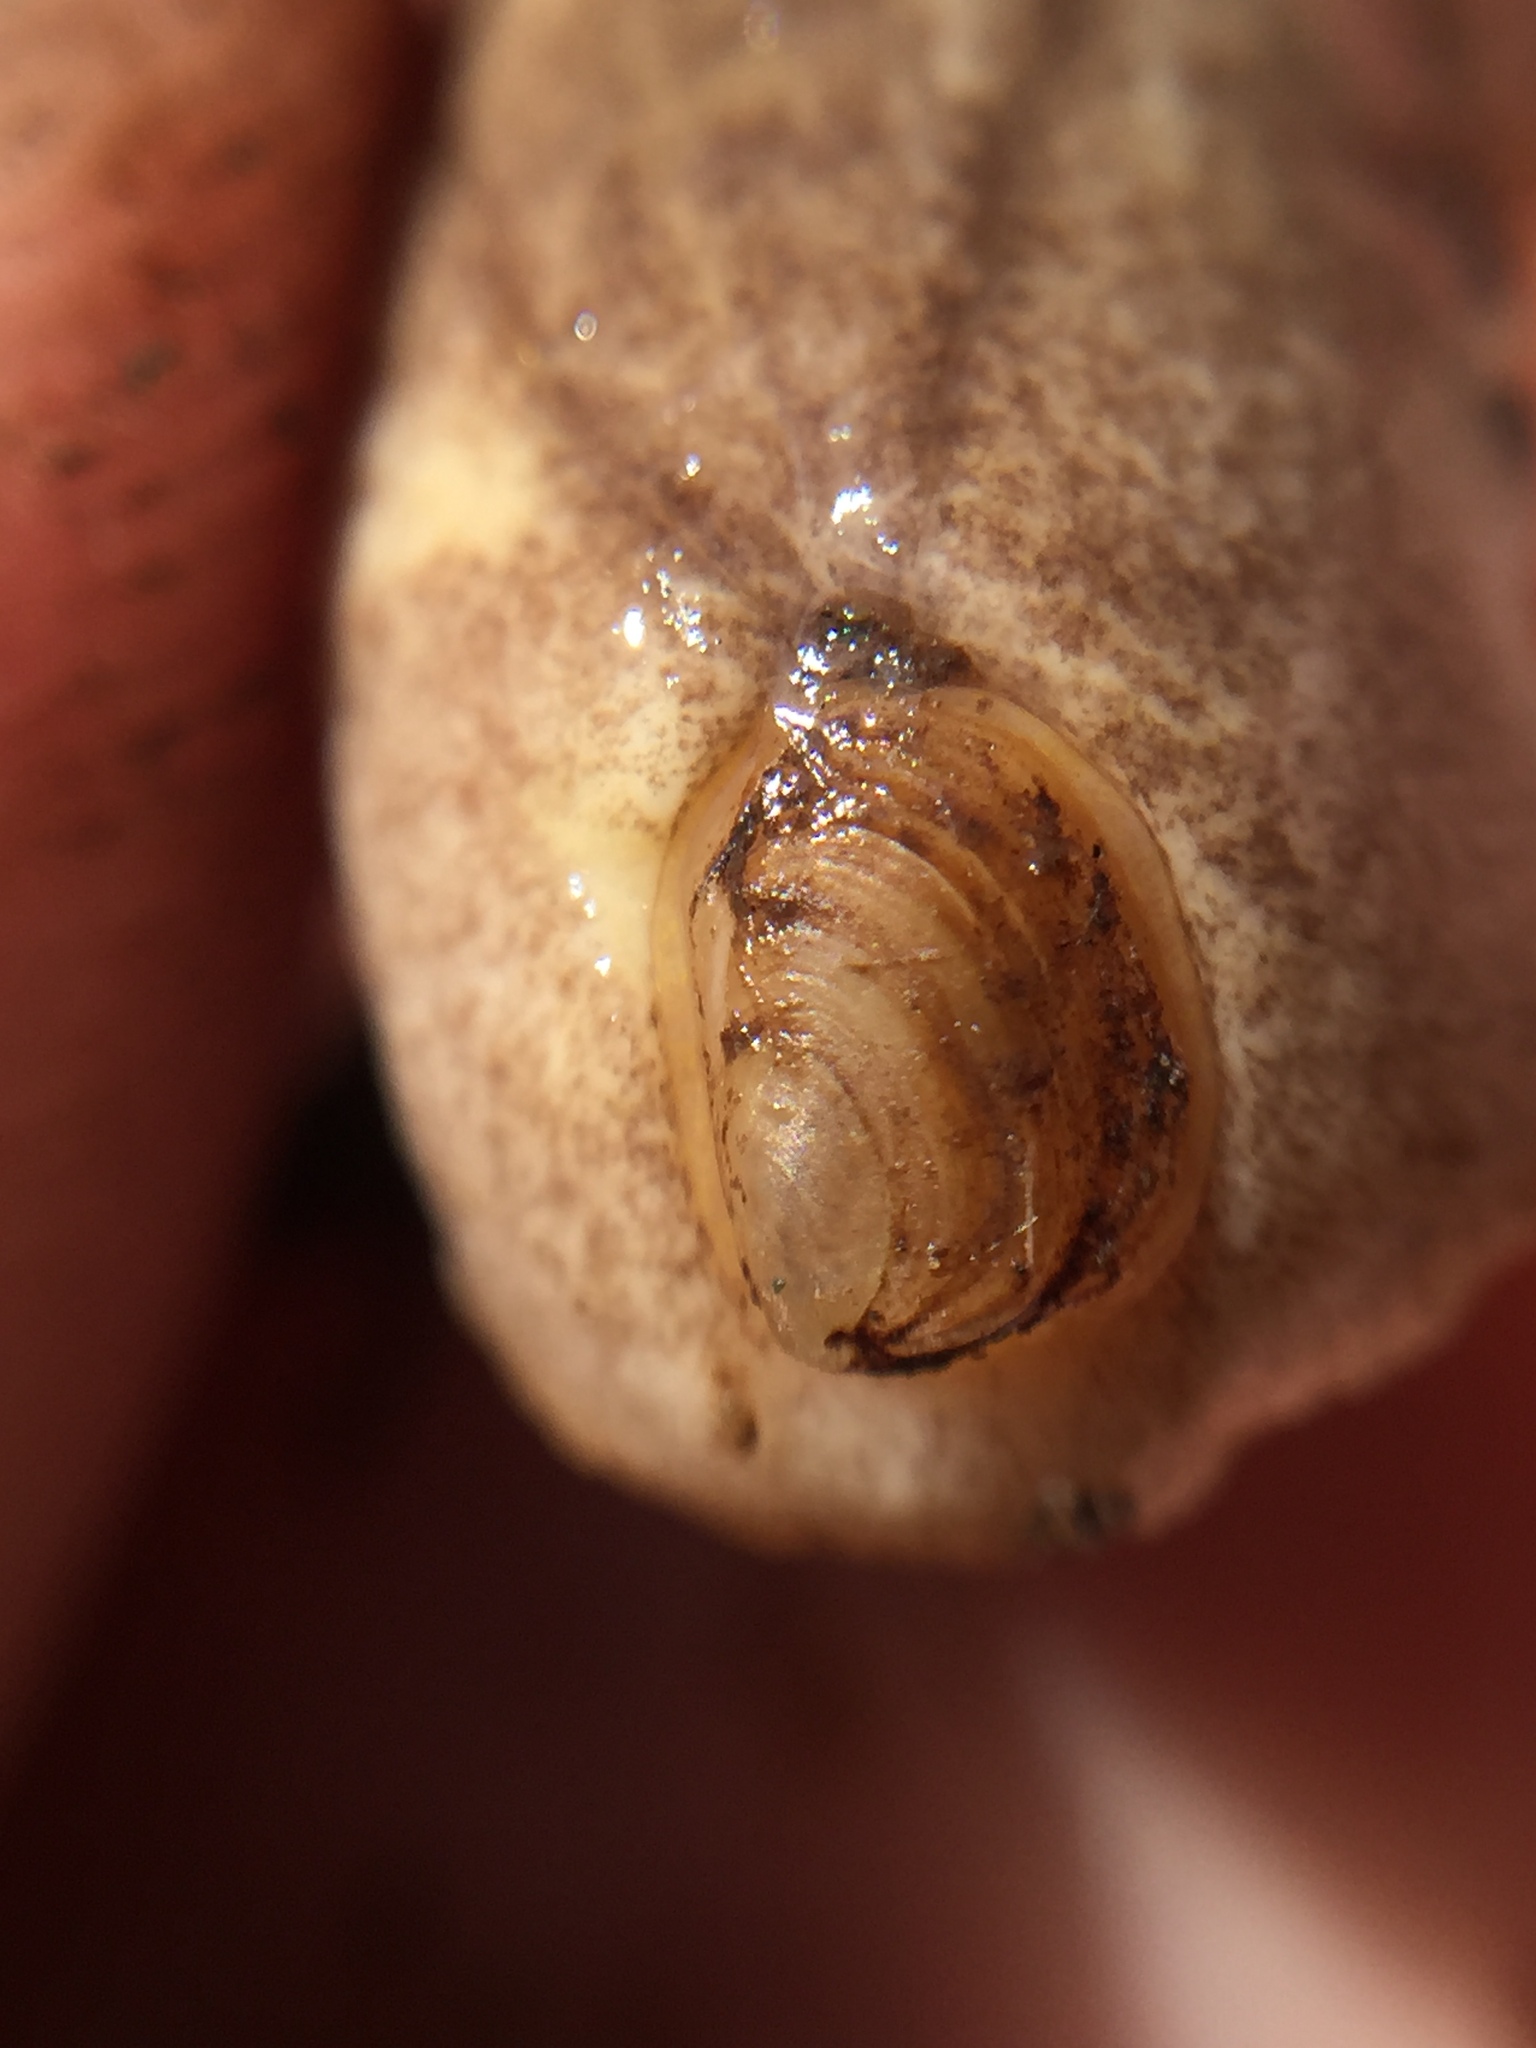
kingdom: Animalia
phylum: Mollusca
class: Gastropoda
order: Stylommatophora
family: Testacellidae
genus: Testacella
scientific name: Testacella haliotidea
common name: Shelled slug
